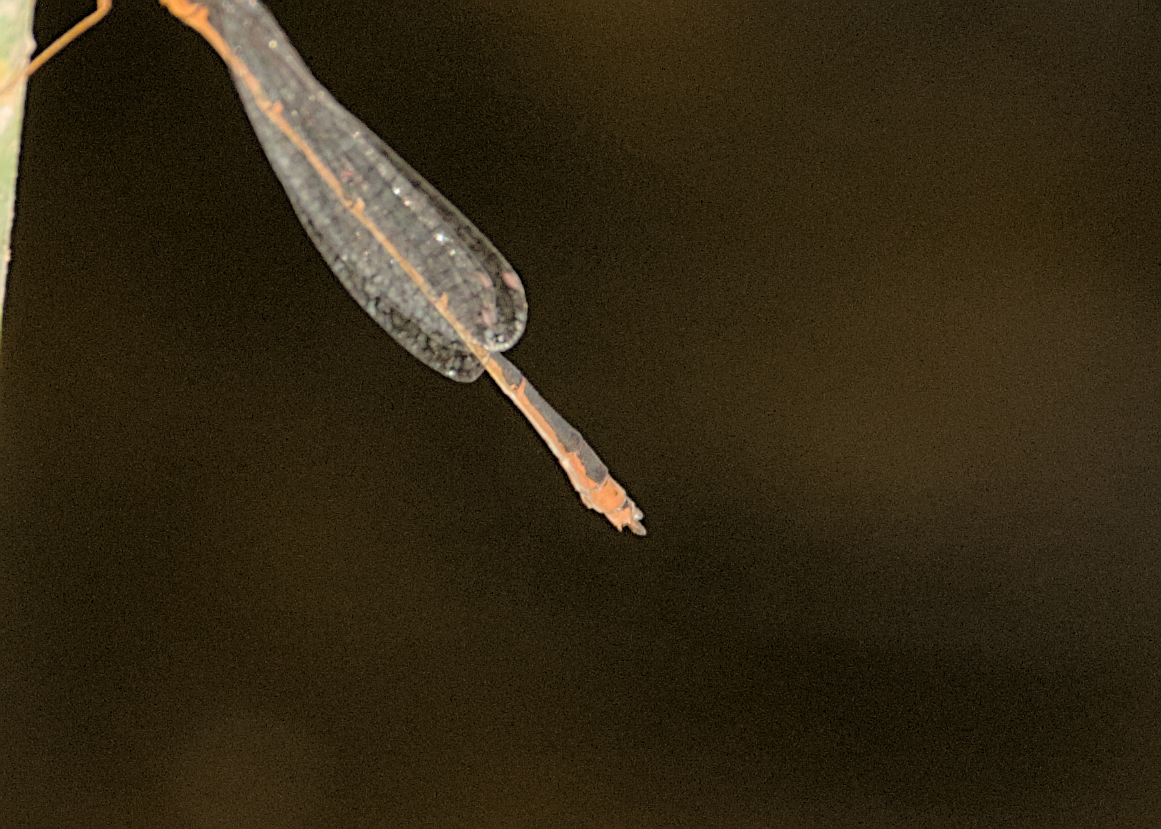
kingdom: Animalia
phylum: Arthropoda
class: Insecta
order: Odonata
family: Coenagrionidae
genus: Enallagma
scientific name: Enallagma signatum
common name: Orange bluet
